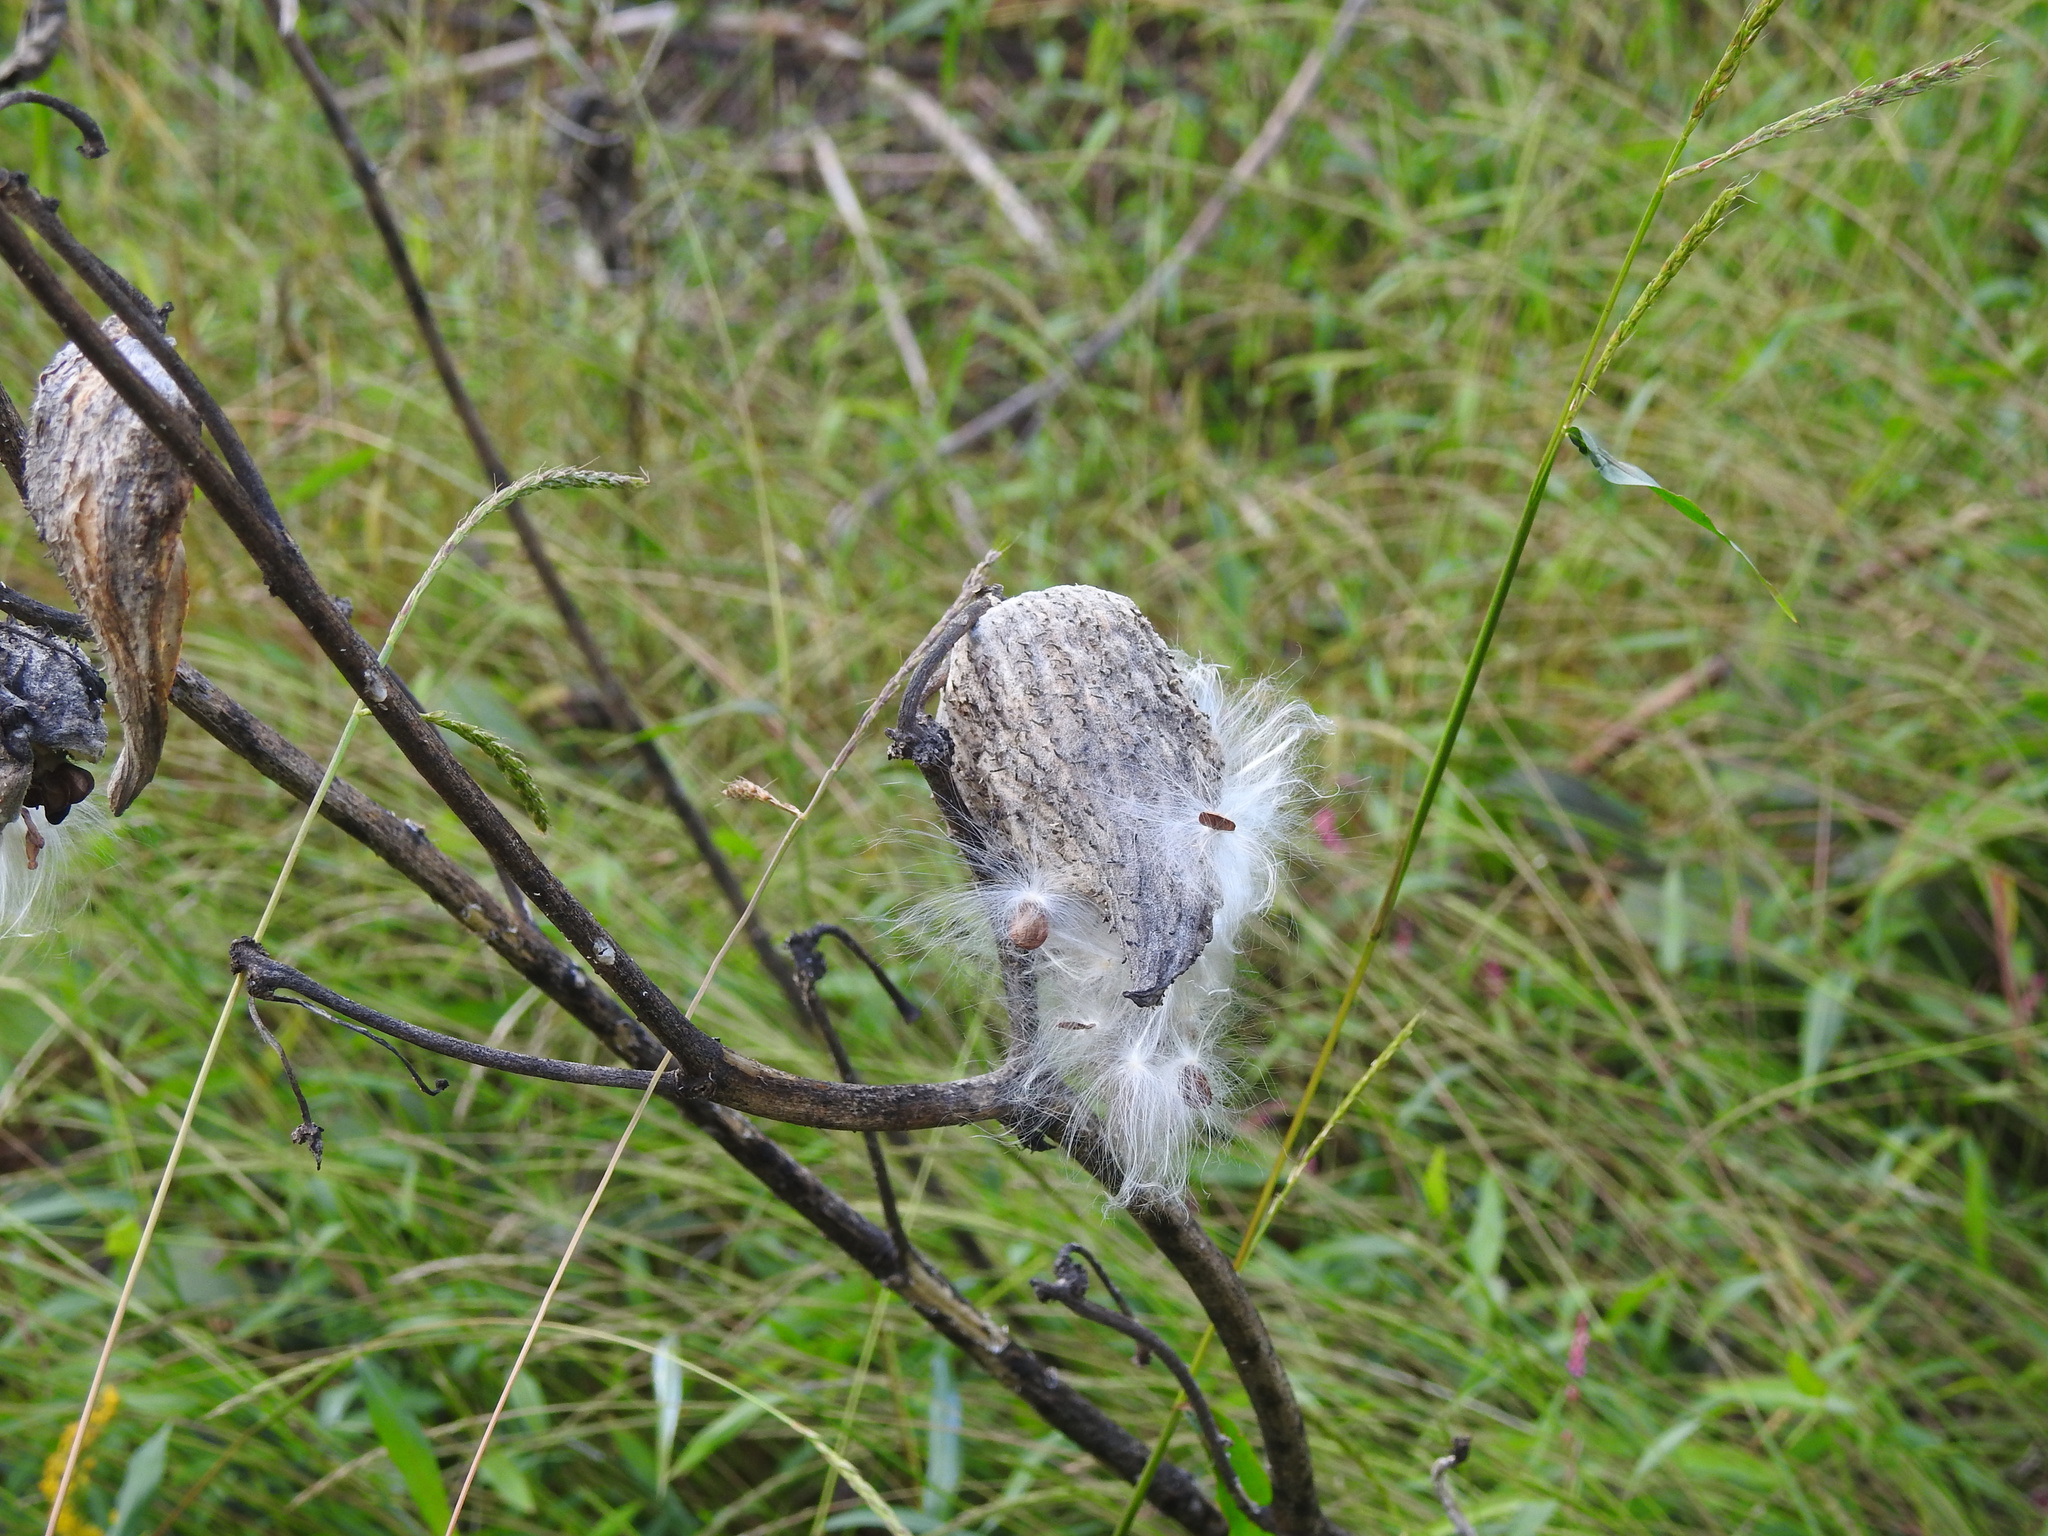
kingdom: Plantae
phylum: Tracheophyta
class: Magnoliopsida
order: Gentianales
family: Apocynaceae
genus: Asclepias
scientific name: Asclepias syriaca
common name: Common milkweed
